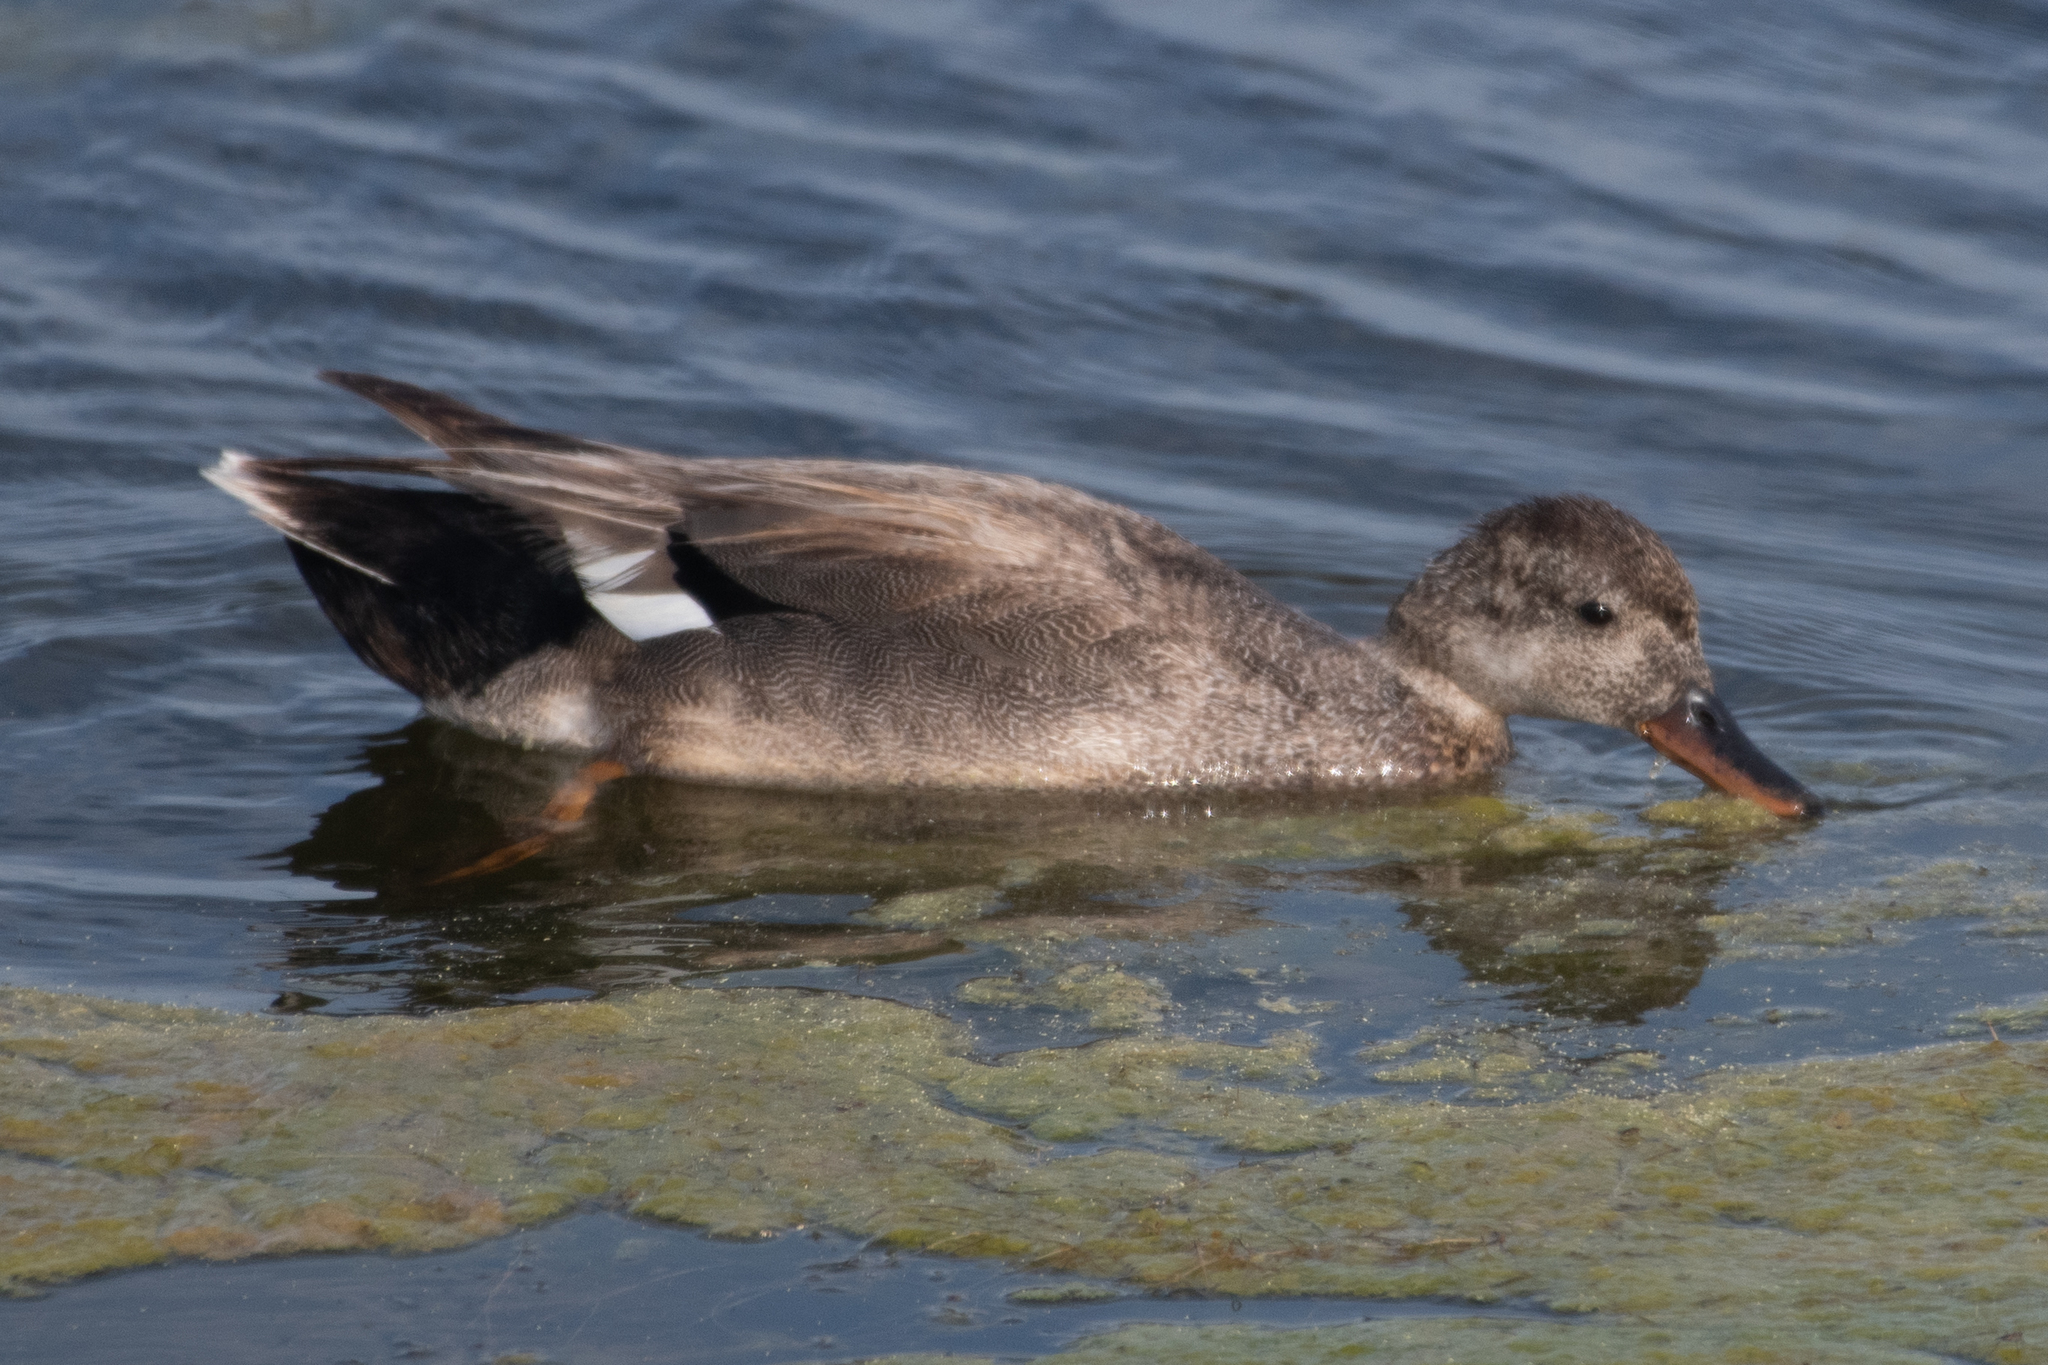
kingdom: Animalia
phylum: Chordata
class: Aves
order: Anseriformes
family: Anatidae
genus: Mareca
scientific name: Mareca strepera
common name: Gadwall
